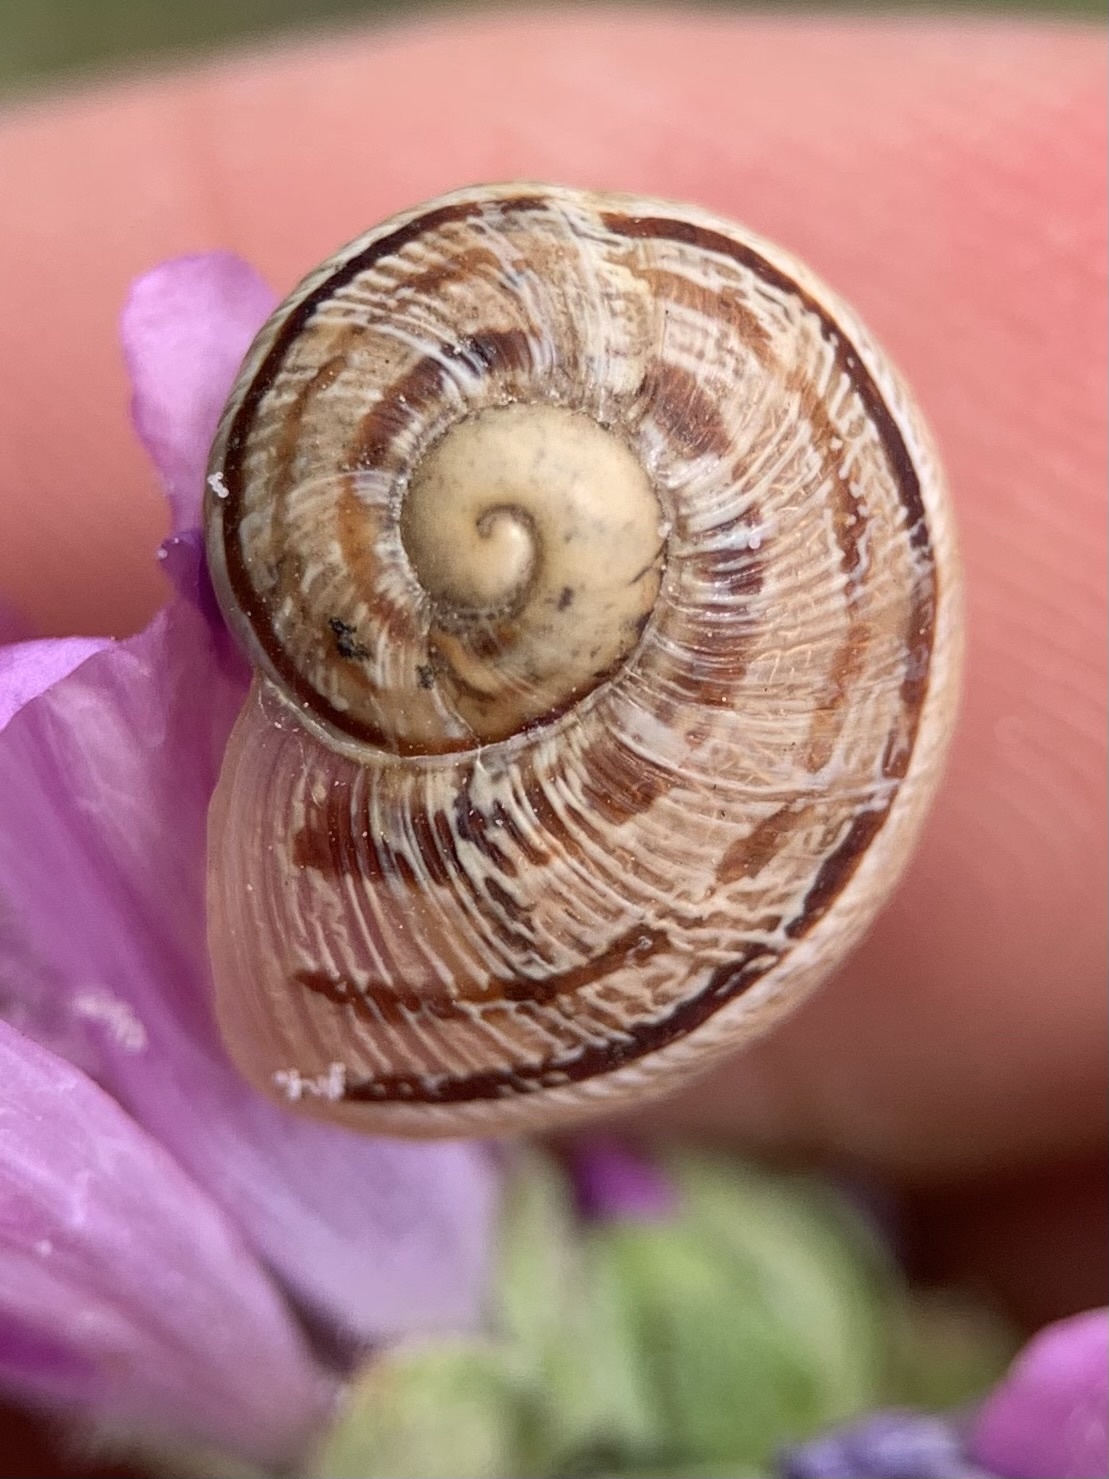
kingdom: Animalia
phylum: Mollusca
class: Gastropoda
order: Stylommatophora
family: Helicidae
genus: Cornu
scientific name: Cornu aspersum
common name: Brown garden snail
